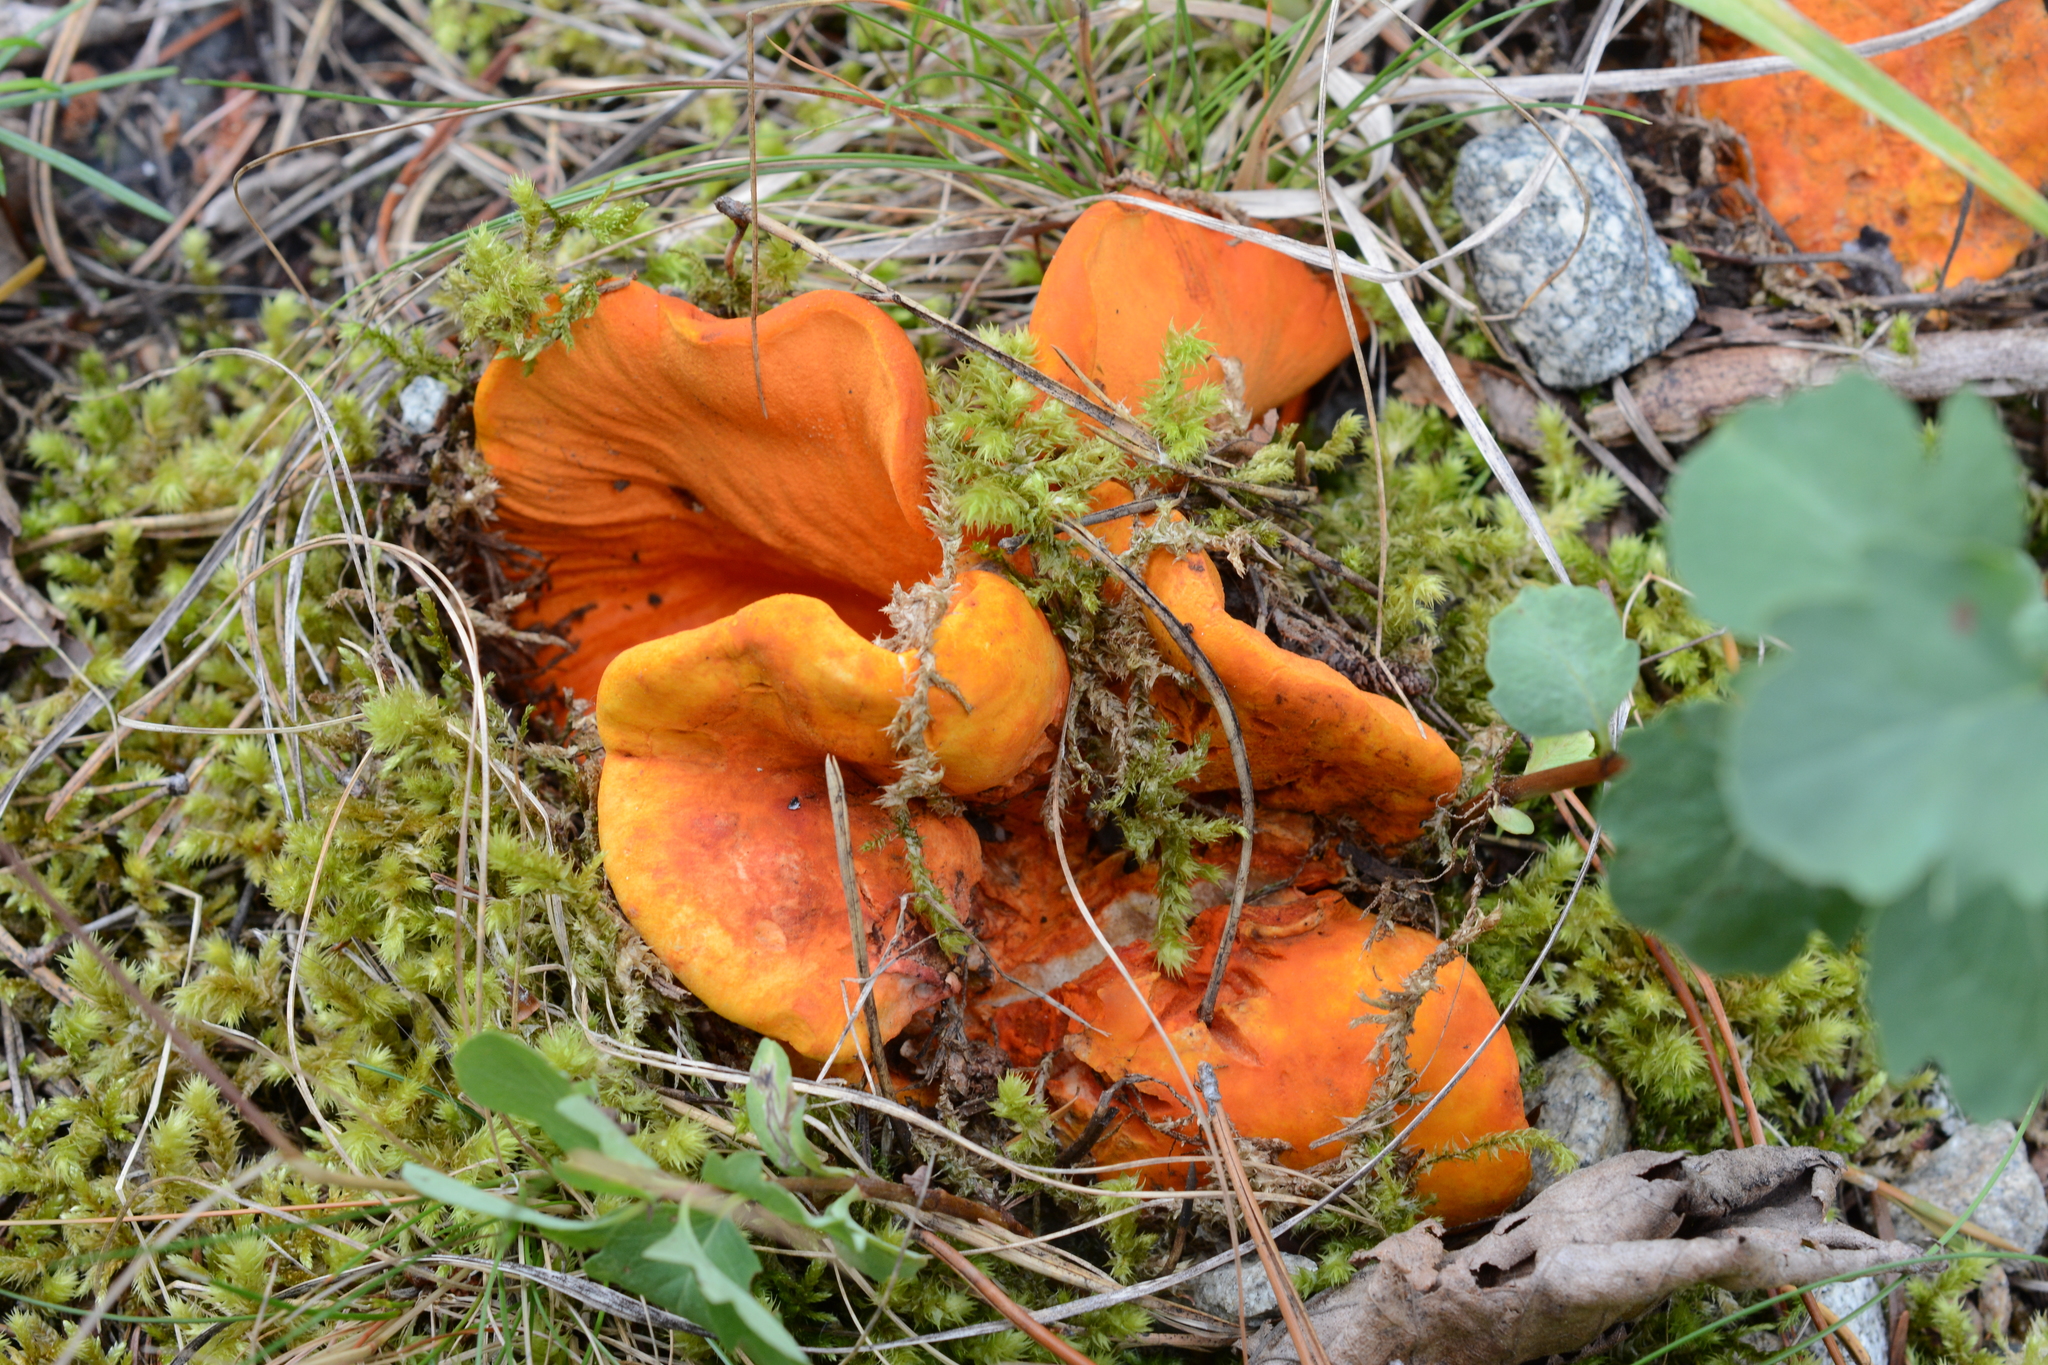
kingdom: Fungi
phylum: Ascomycota
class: Sordariomycetes
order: Hypocreales
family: Hypocreaceae
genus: Hypomyces
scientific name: Hypomyces lactifluorum
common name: Lobster mushroom
